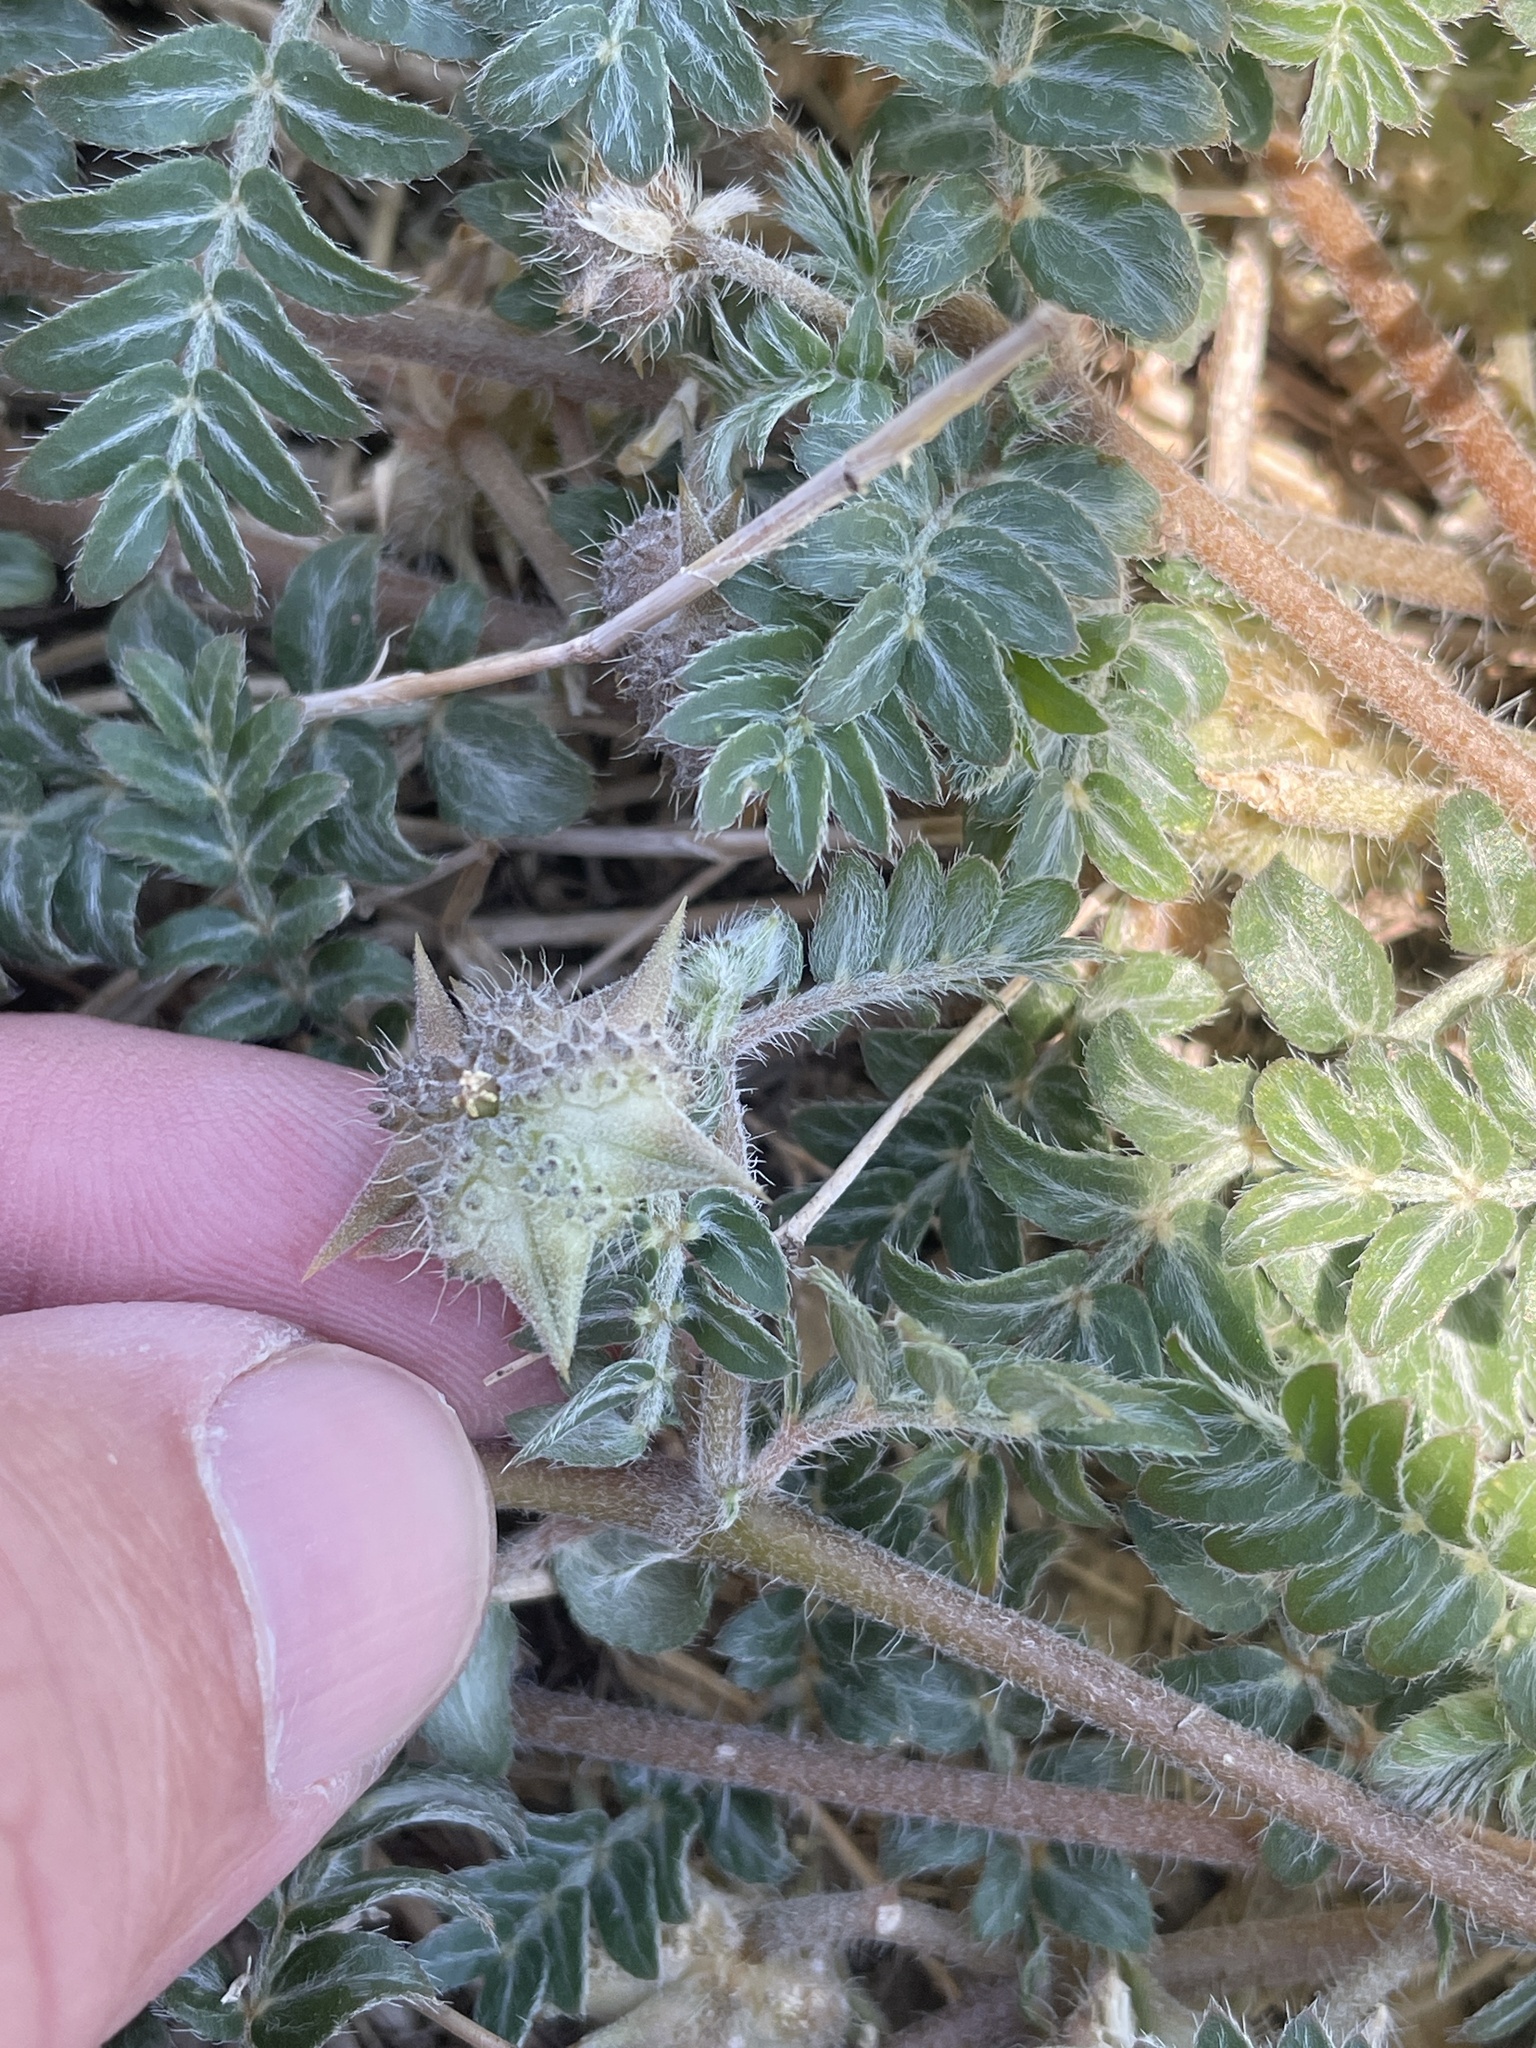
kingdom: Plantae
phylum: Tracheophyta
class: Magnoliopsida
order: Zygophyllales
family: Zygophyllaceae
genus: Tribulus
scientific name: Tribulus terrestris
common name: Puncturevine
